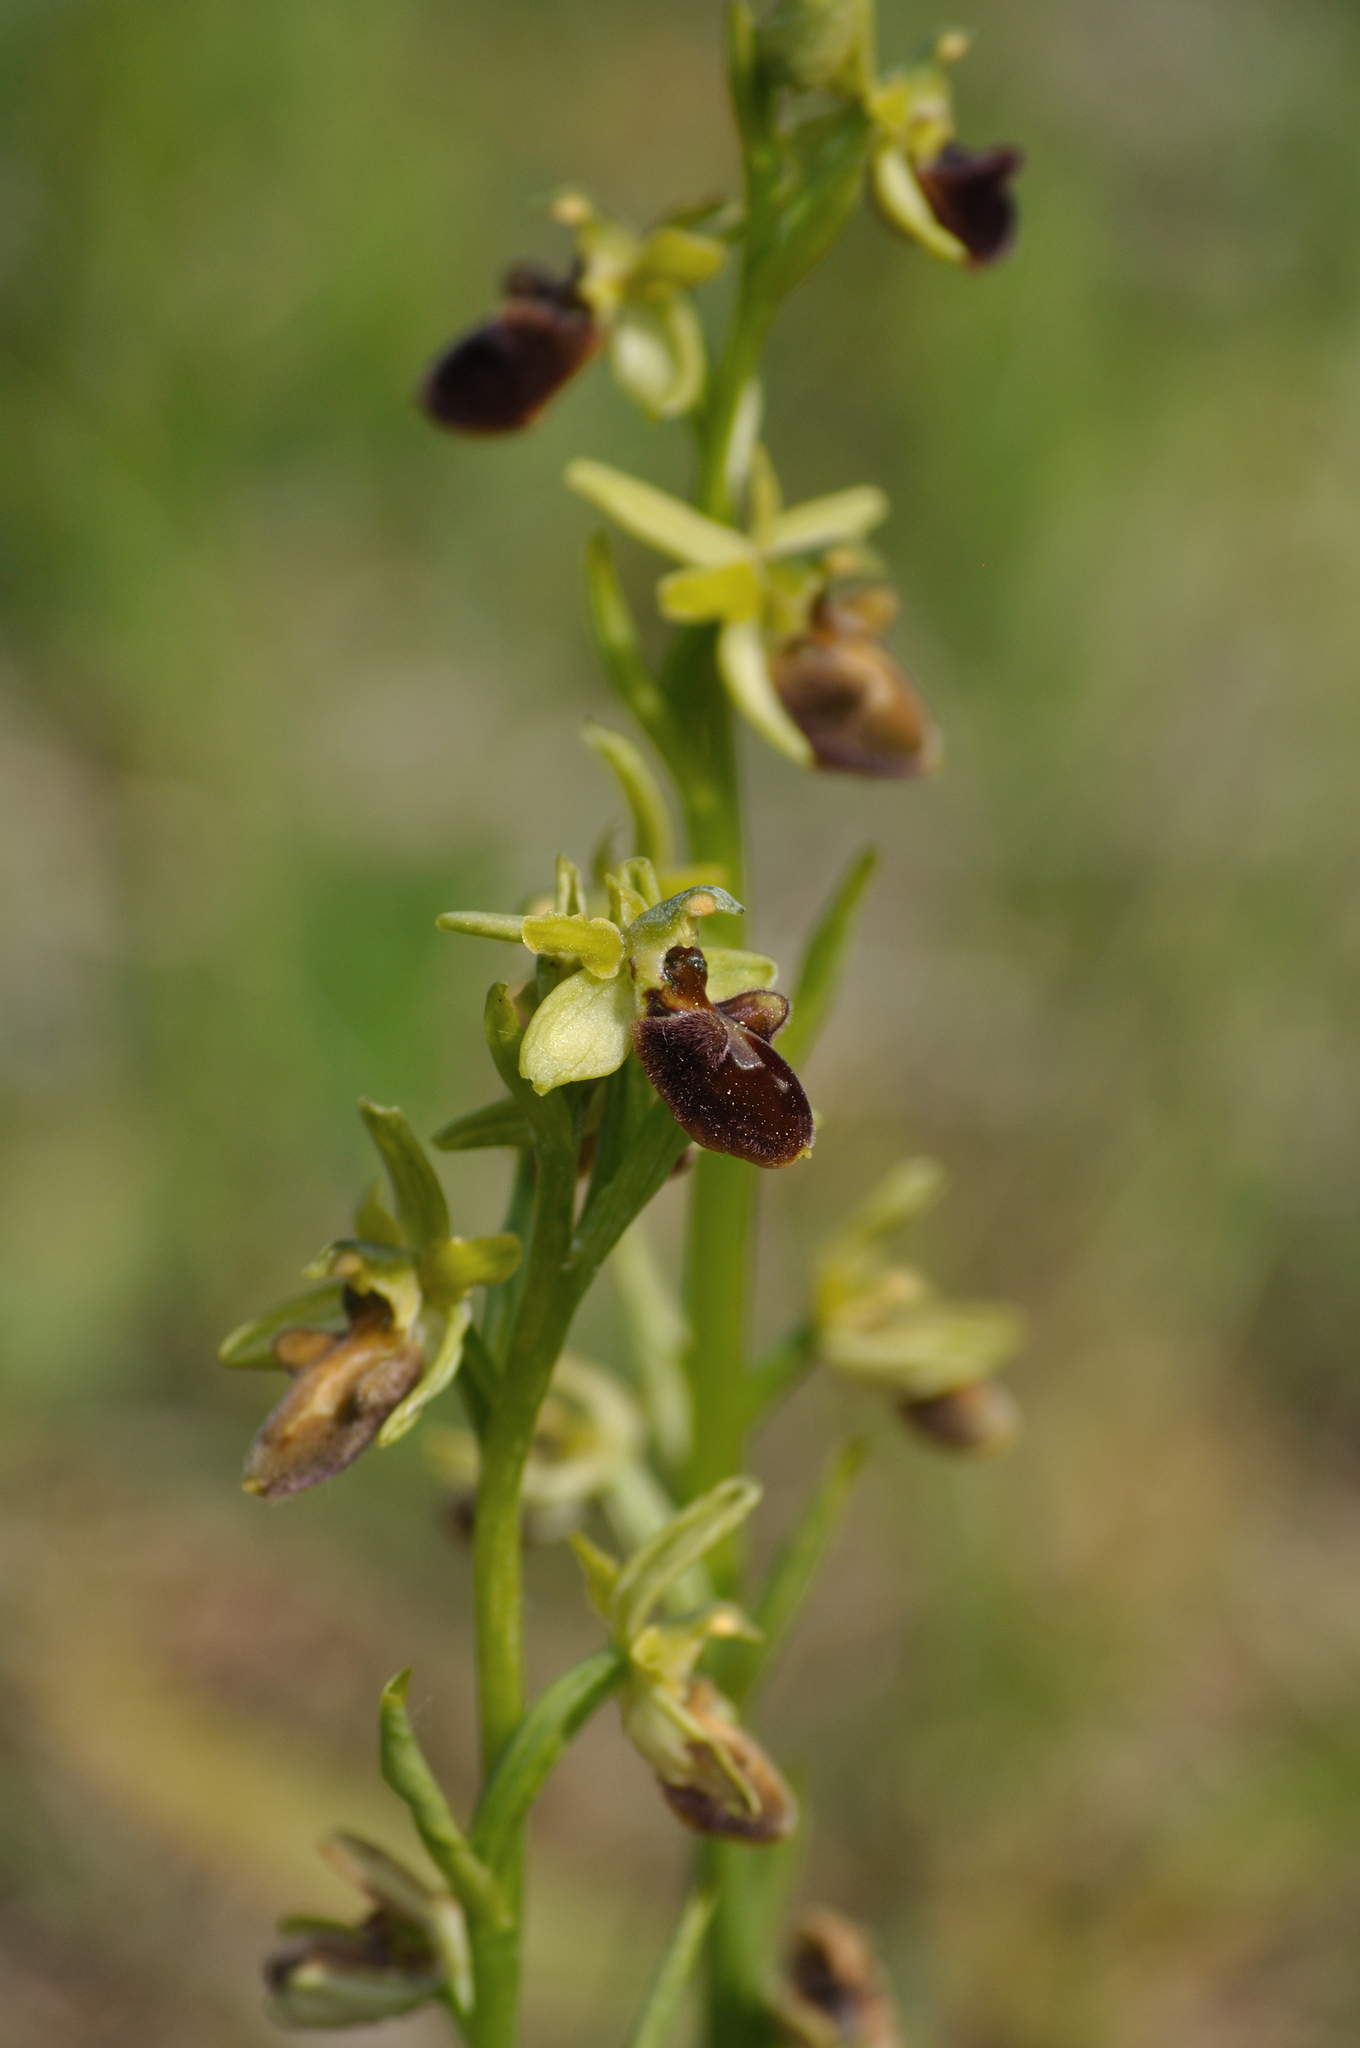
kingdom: Plantae
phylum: Tracheophyta
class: Liliopsida
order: Asparagales
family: Orchidaceae
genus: Ophrys
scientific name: Ophrys sphegodes
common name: Early spider-orchid
